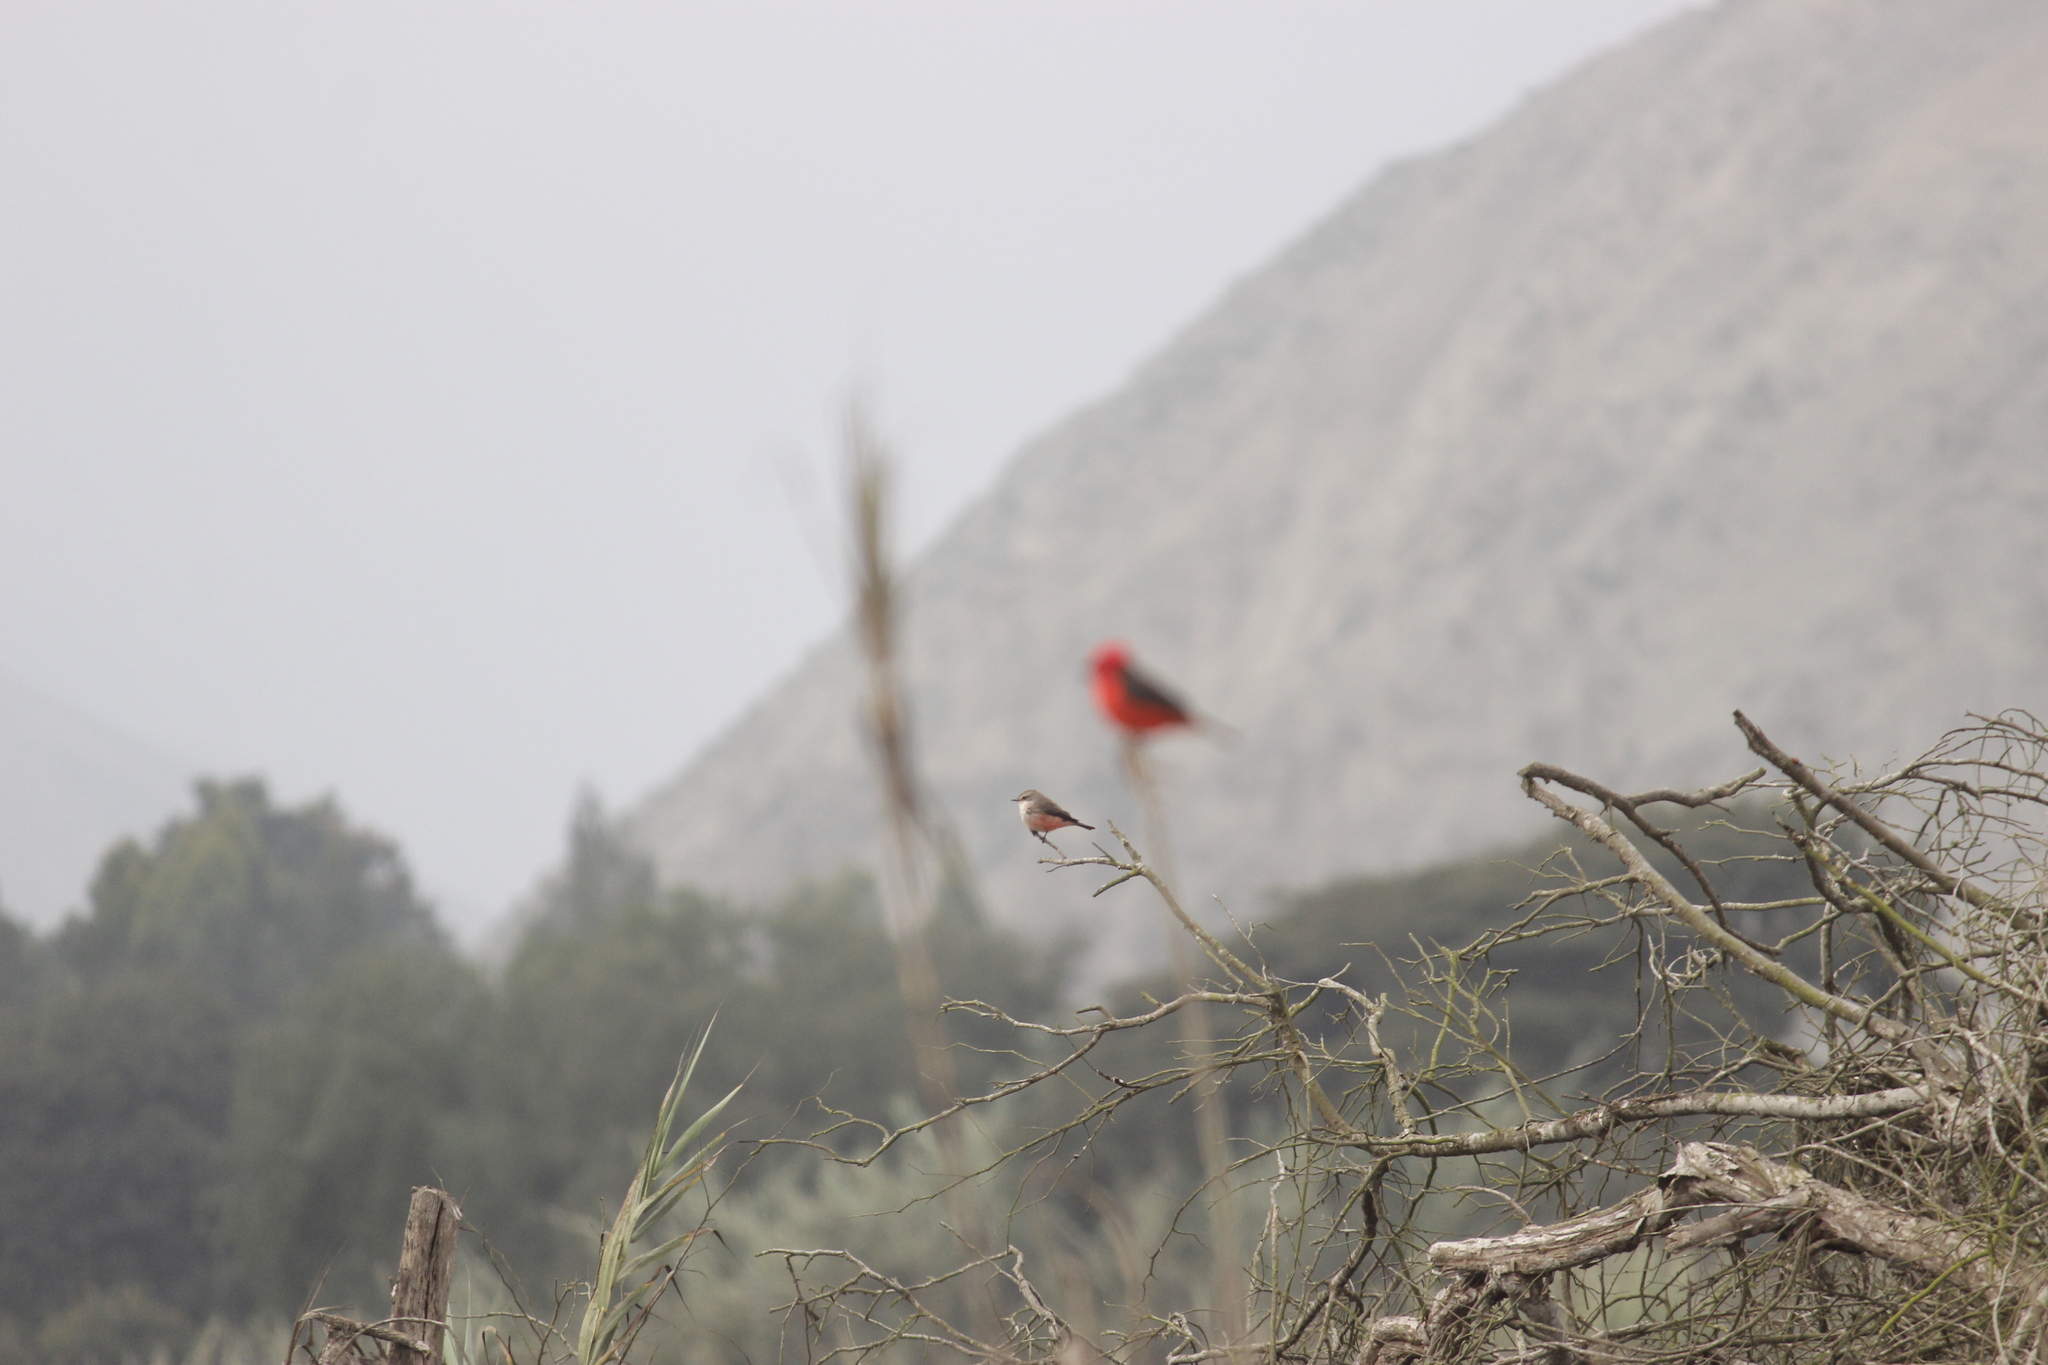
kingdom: Animalia
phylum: Chordata
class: Aves
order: Passeriformes
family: Tyrannidae
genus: Pyrocephalus
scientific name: Pyrocephalus rubinus
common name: Vermilion flycatcher
